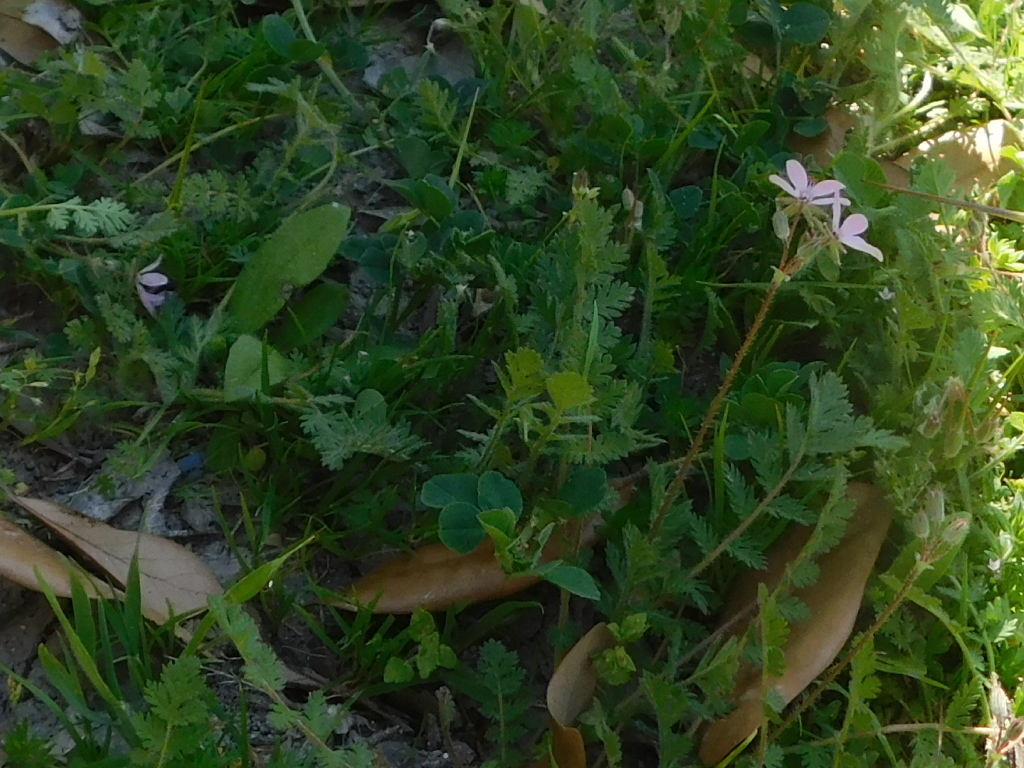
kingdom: Plantae
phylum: Tracheophyta
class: Magnoliopsida
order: Geraniales
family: Geraniaceae
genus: Erodium
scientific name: Erodium cicutarium
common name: Common stork's-bill
